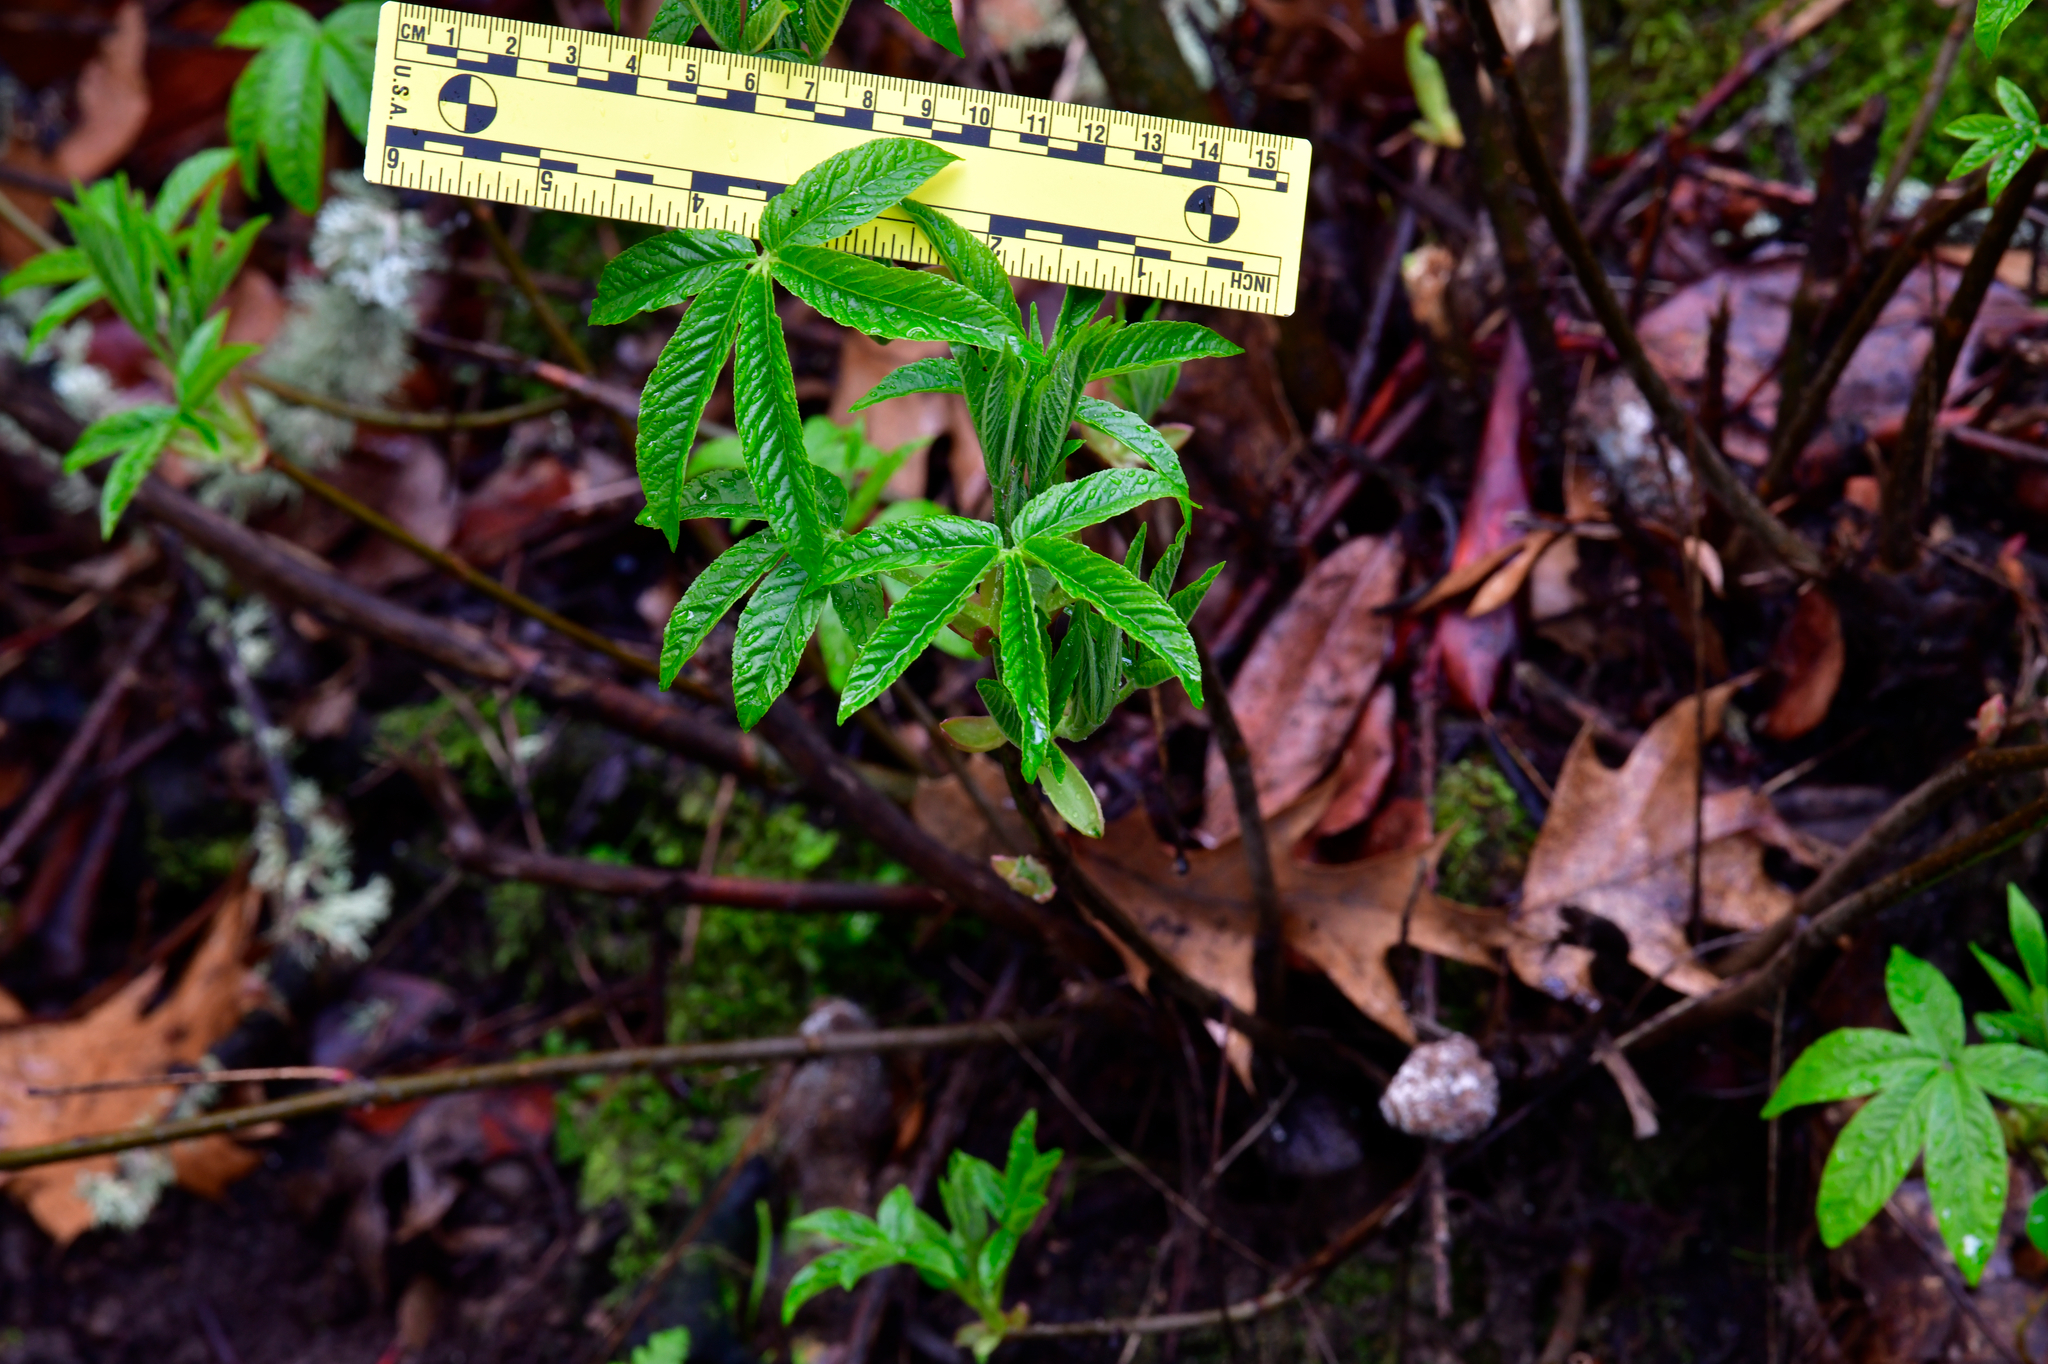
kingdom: Plantae
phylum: Tracheophyta
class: Magnoliopsida
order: Sapindales
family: Sapindaceae
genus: Aesculus
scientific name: Aesculus californica
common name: California buckeye
